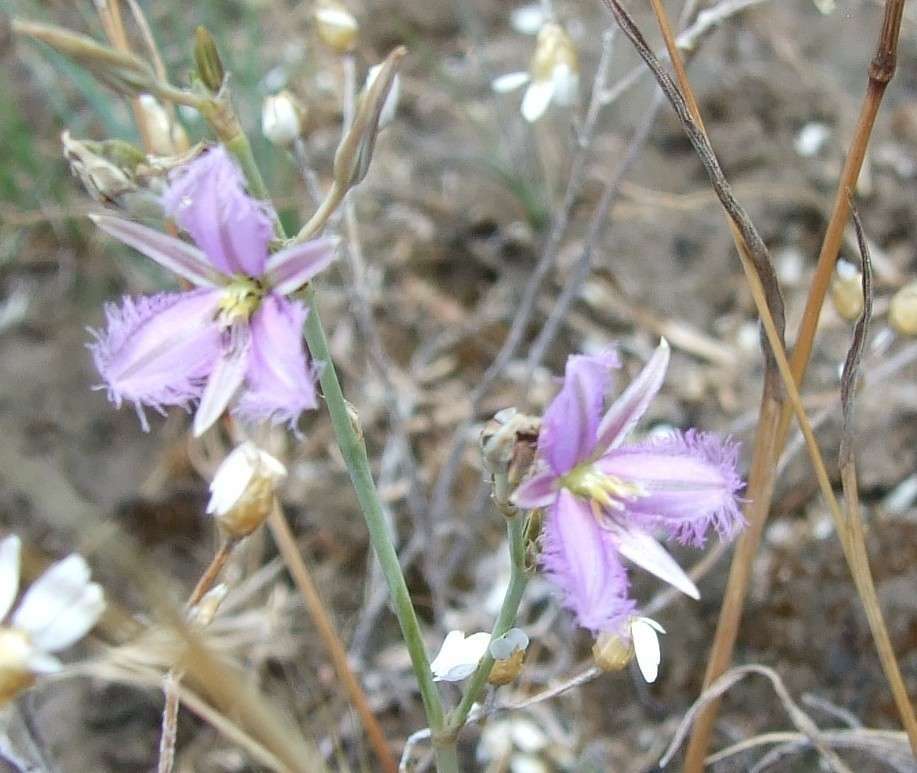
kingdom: Plantae
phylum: Tracheophyta
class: Liliopsida
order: Asparagales
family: Asparagaceae
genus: Thysanotus
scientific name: Thysanotus baueri
